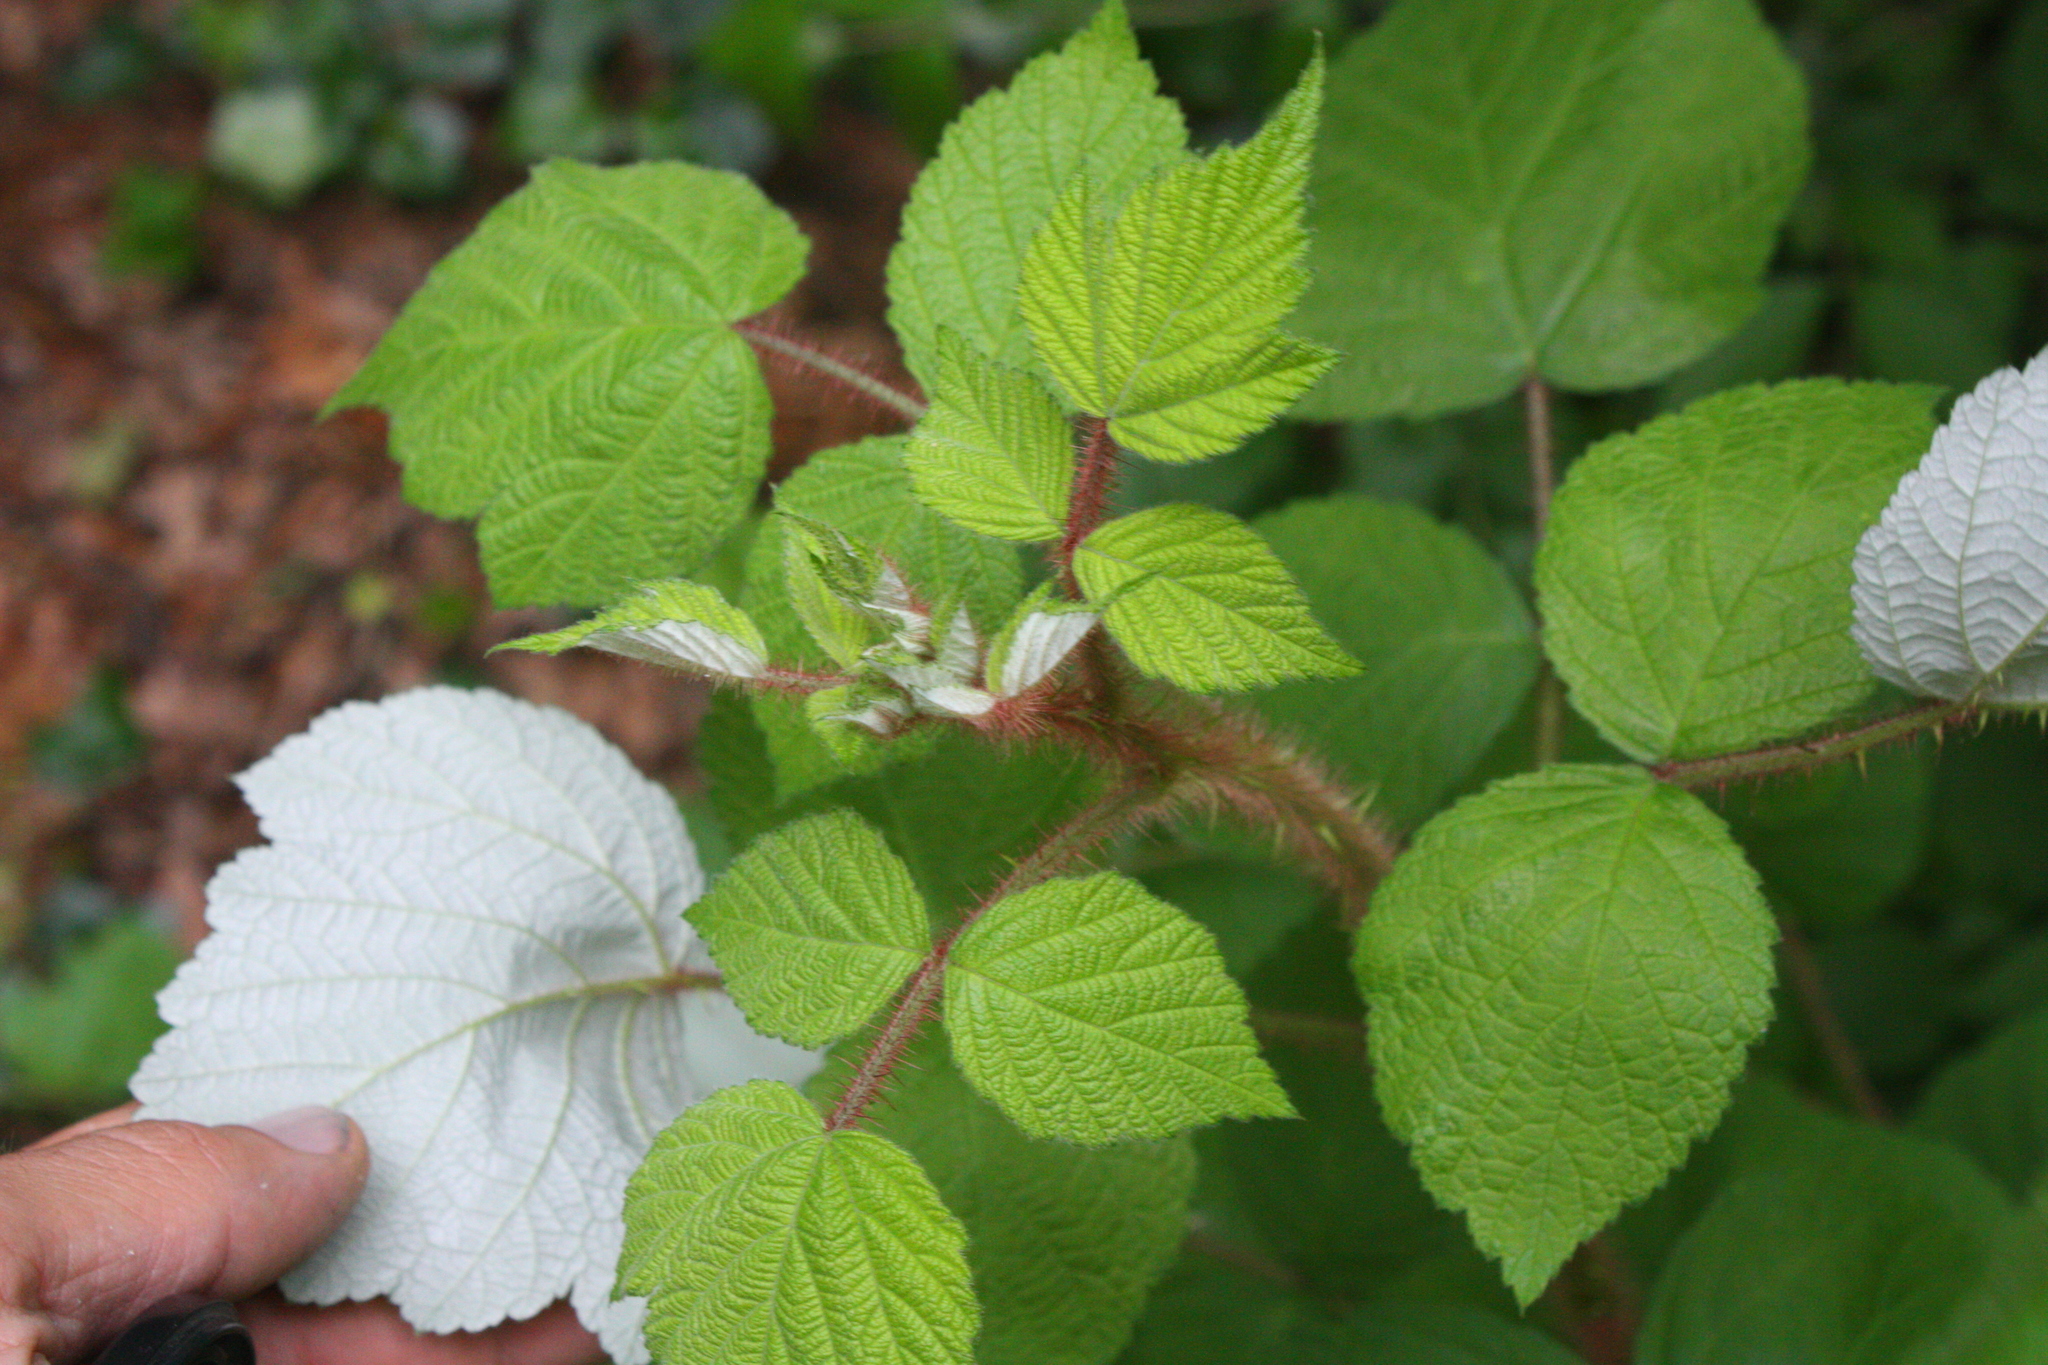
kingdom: Plantae
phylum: Tracheophyta
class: Magnoliopsida
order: Rosales
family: Rosaceae
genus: Rubus
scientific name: Rubus phoenicolasius
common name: Japanese wineberry
